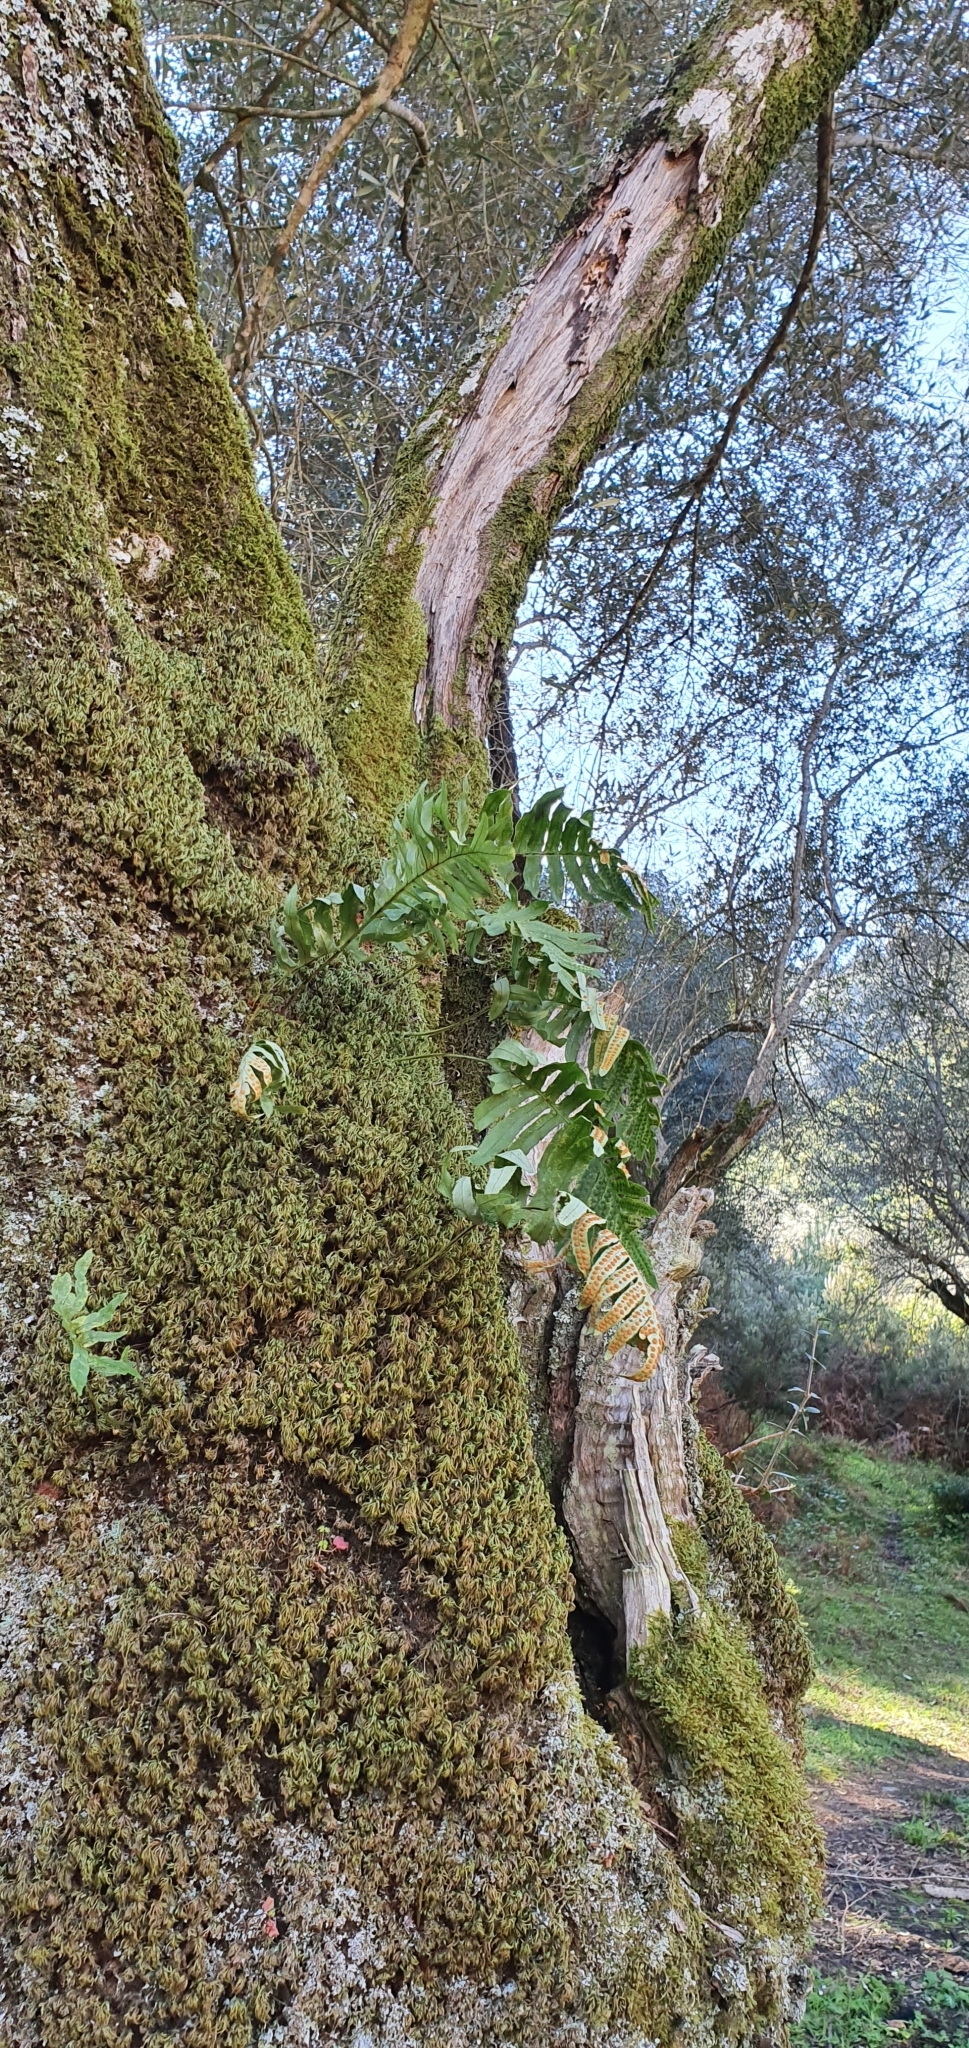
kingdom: Plantae
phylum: Tracheophyta
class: Polypodiopsida
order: Polypodiales
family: Polypodiaceae
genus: Polypodium
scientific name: Polypodium cambricum
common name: Southern polypody
